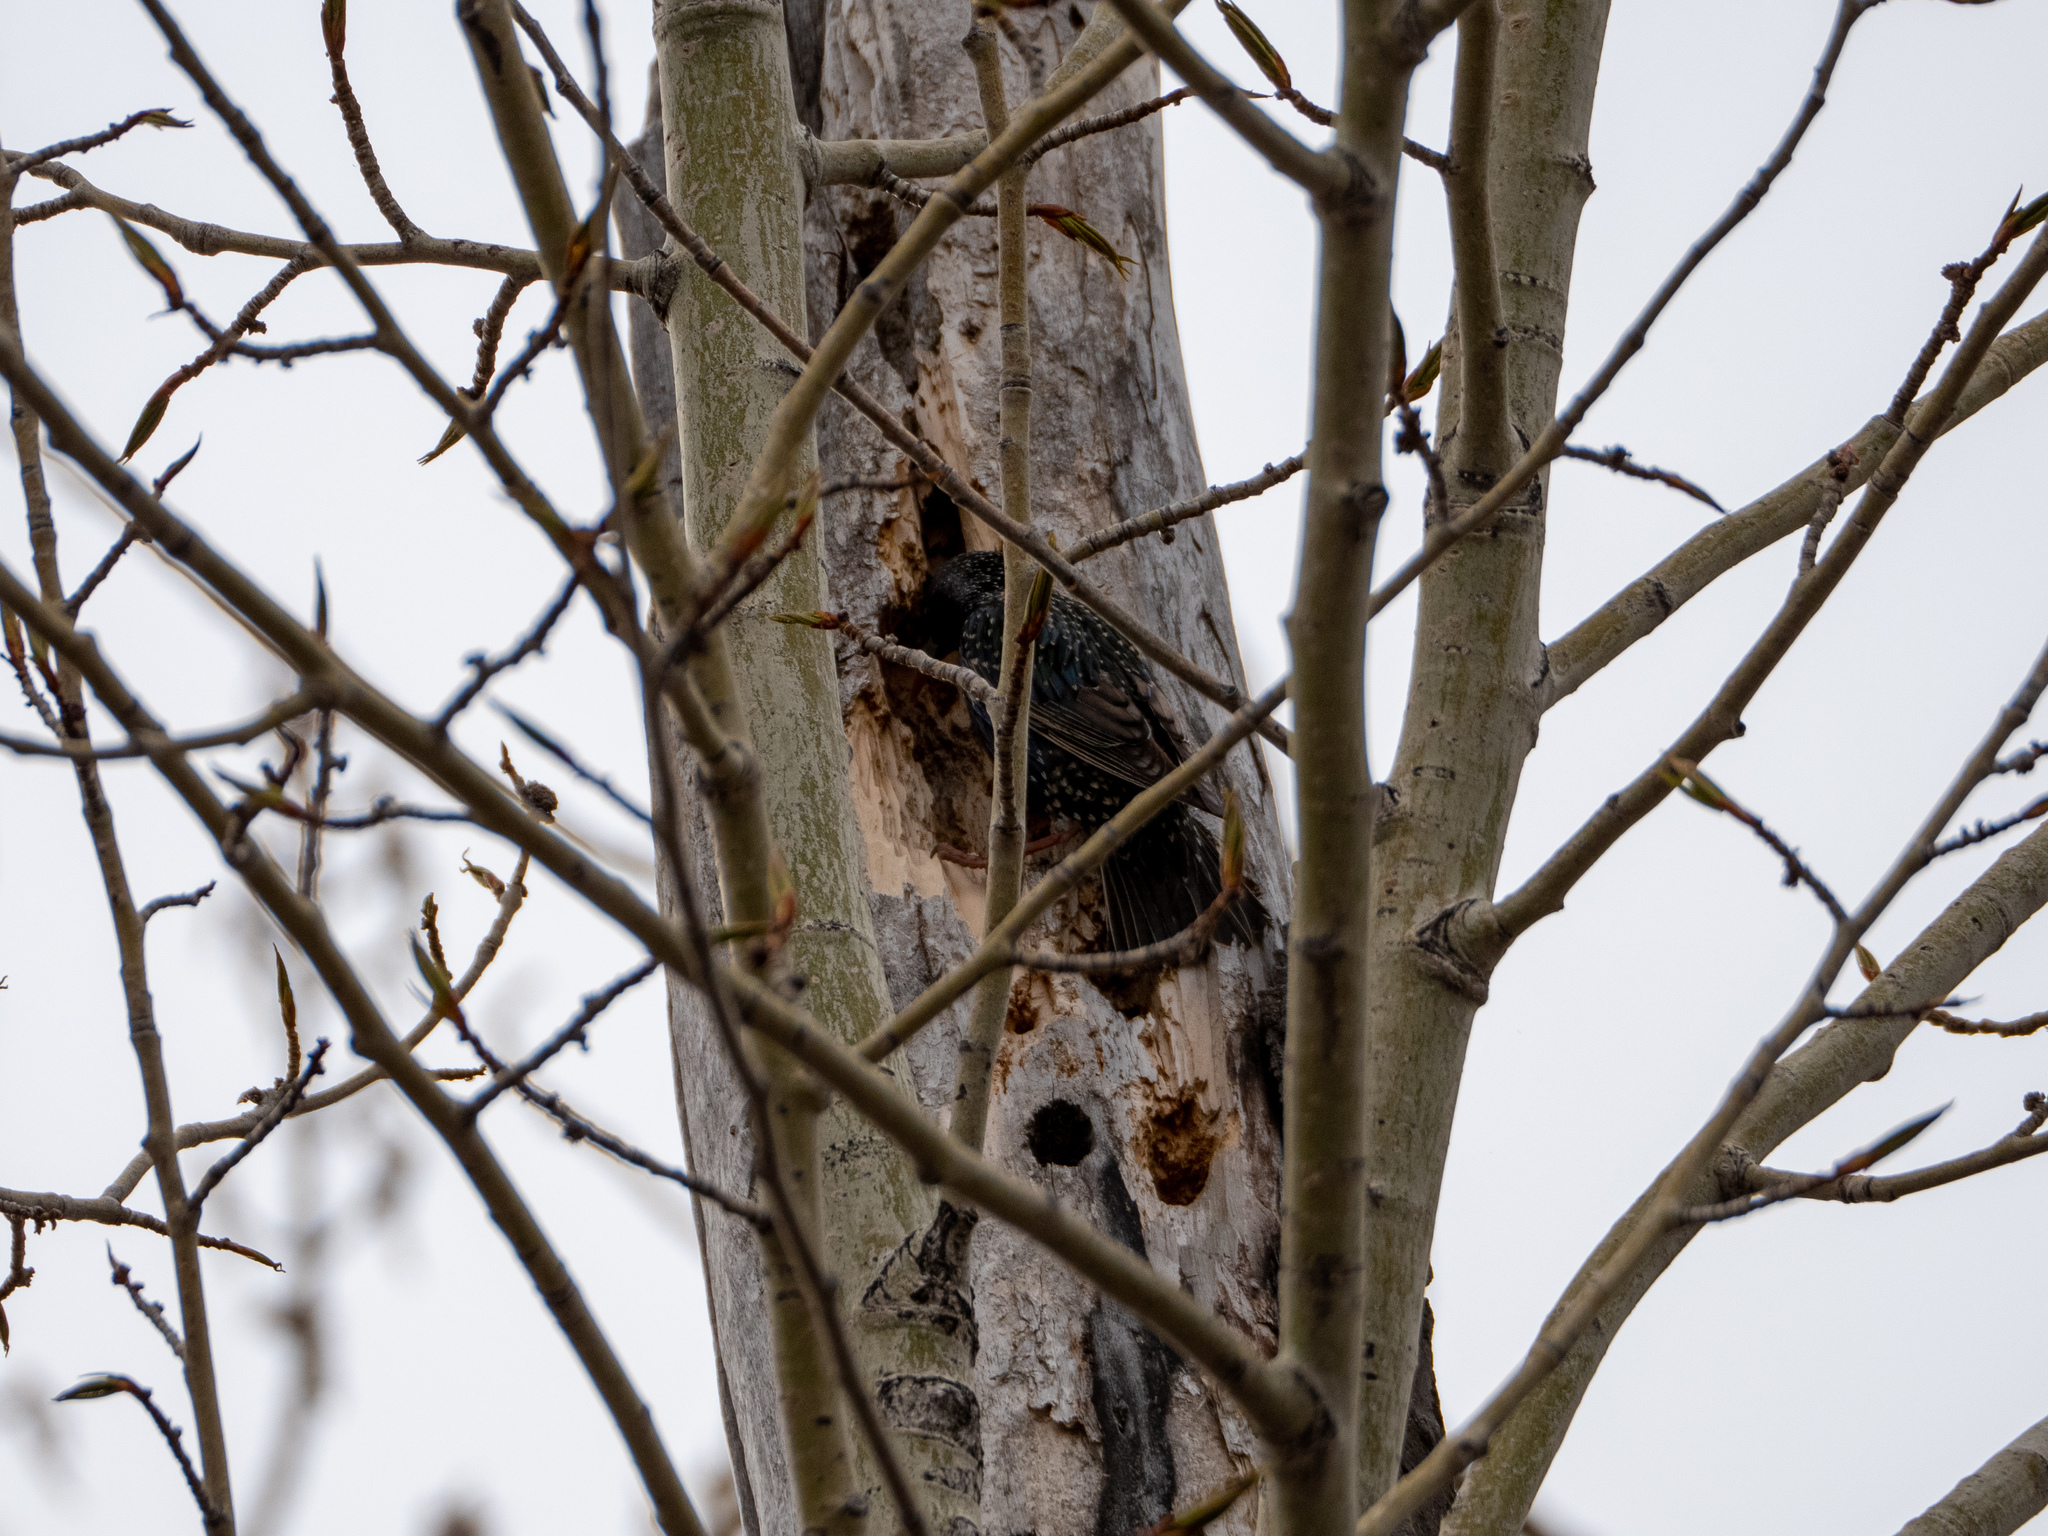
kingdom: Animalia
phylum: Chordata
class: Aves
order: Passeriformes
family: Sturnidae
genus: Sturnus
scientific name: Sturnus vulgaris
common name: Common starling
